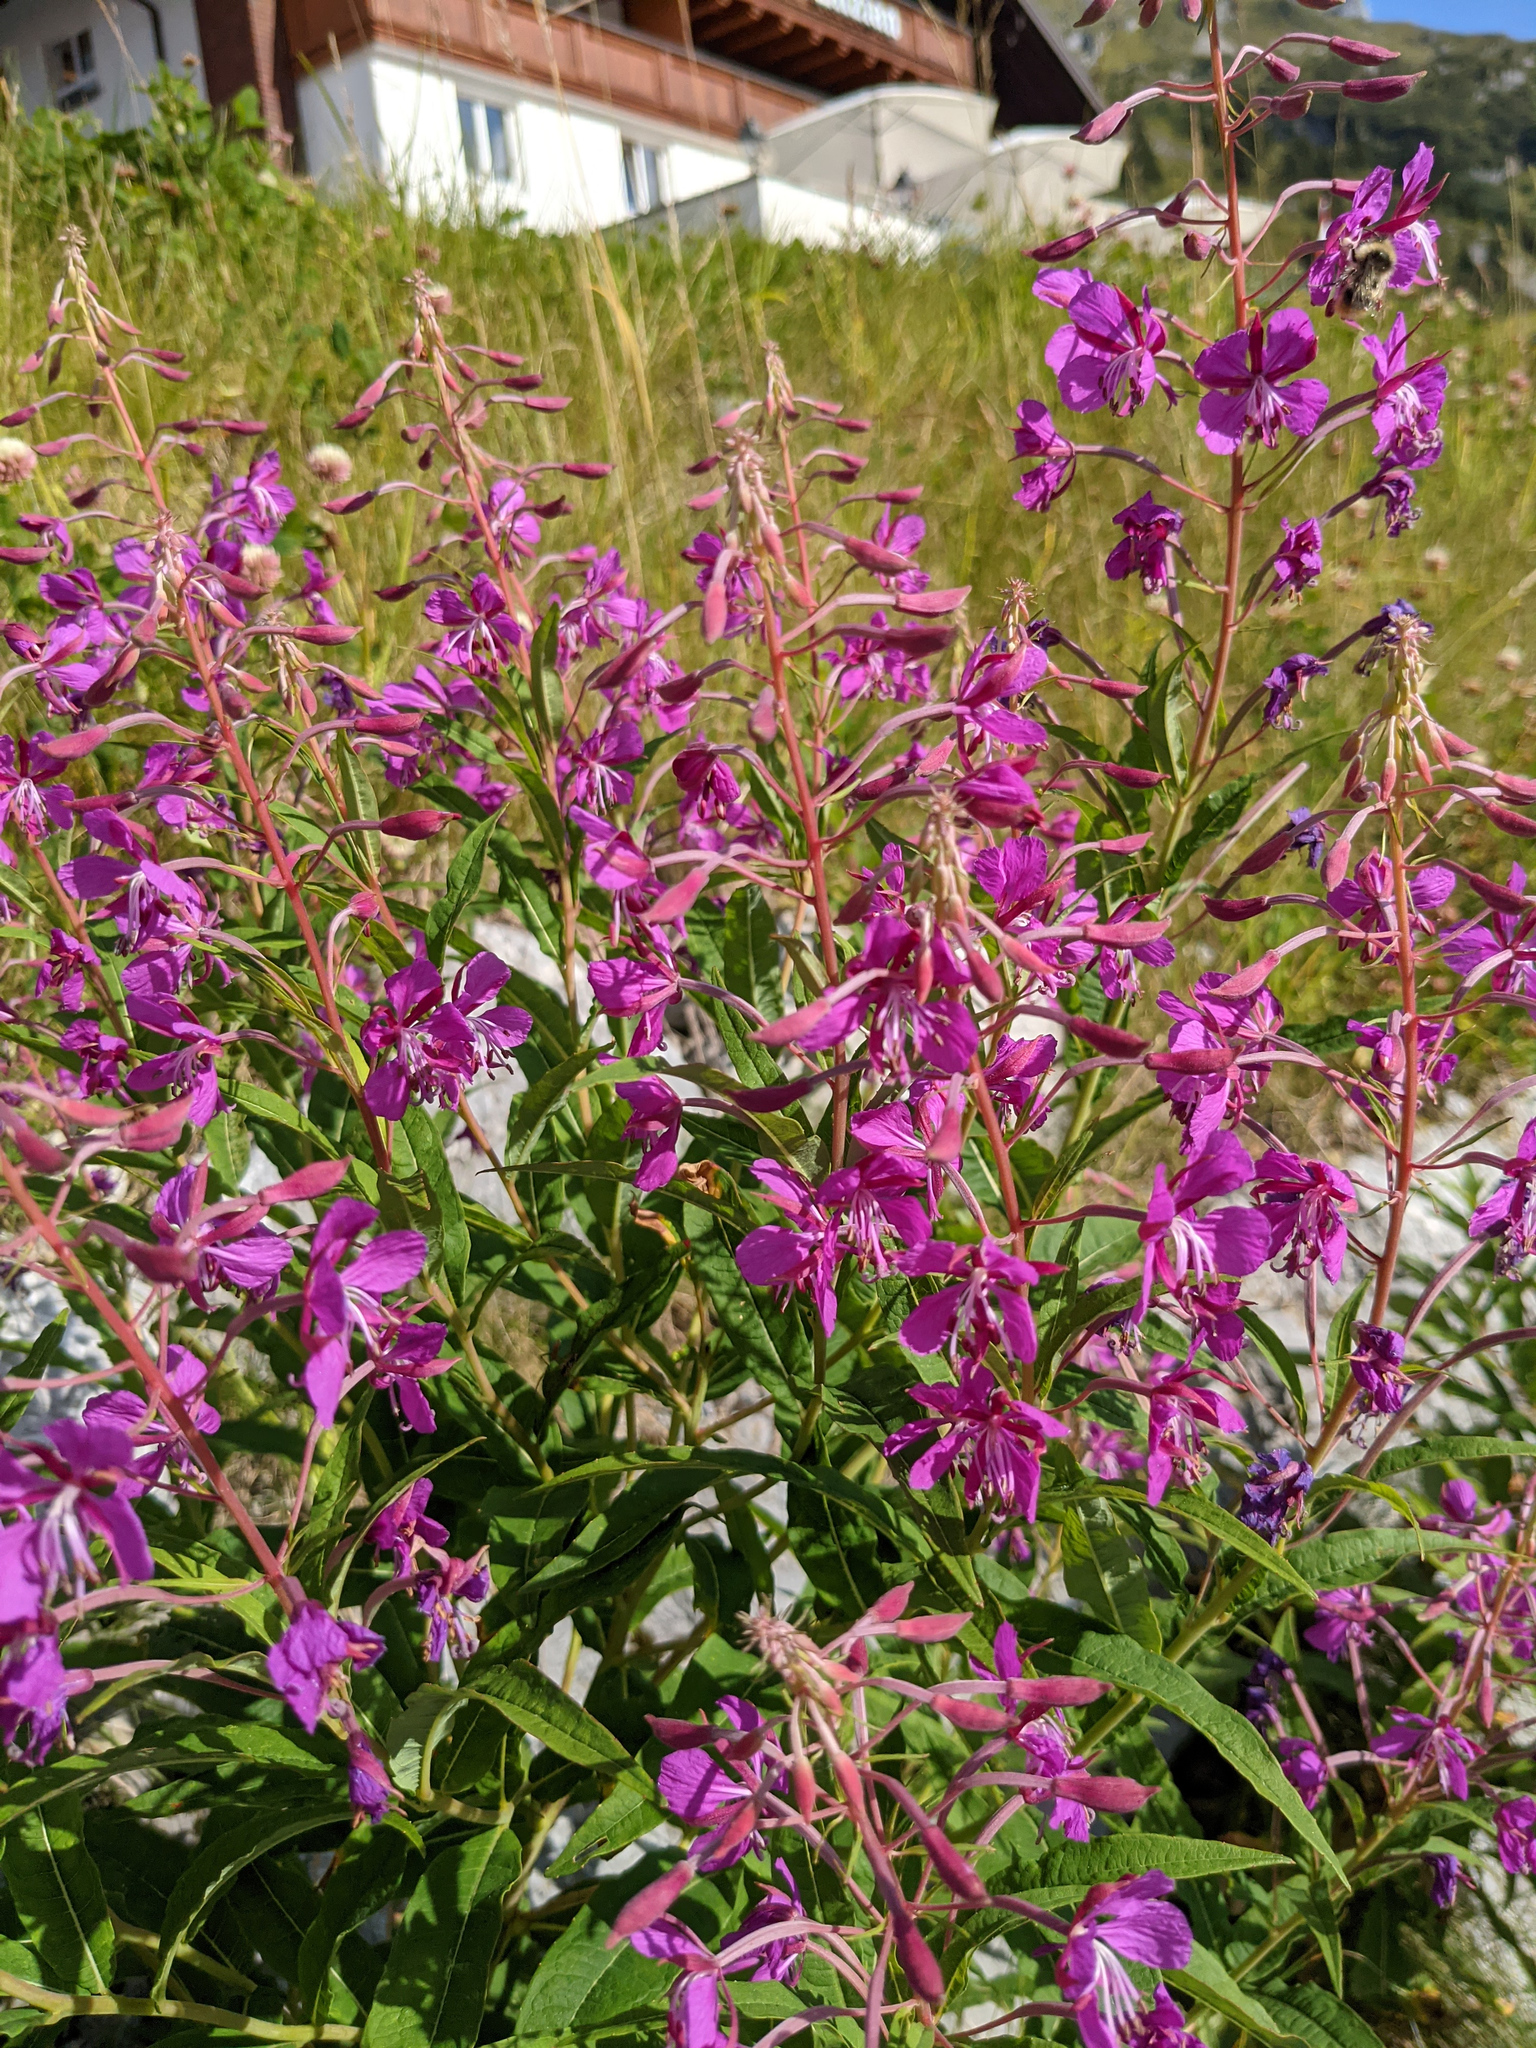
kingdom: Plantae
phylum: Tracheophyta
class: Magnoliopsida
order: Myrtales
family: Onagraceae
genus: Chamaenerion
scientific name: Chamaenerion angustifolium
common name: Fireweed
